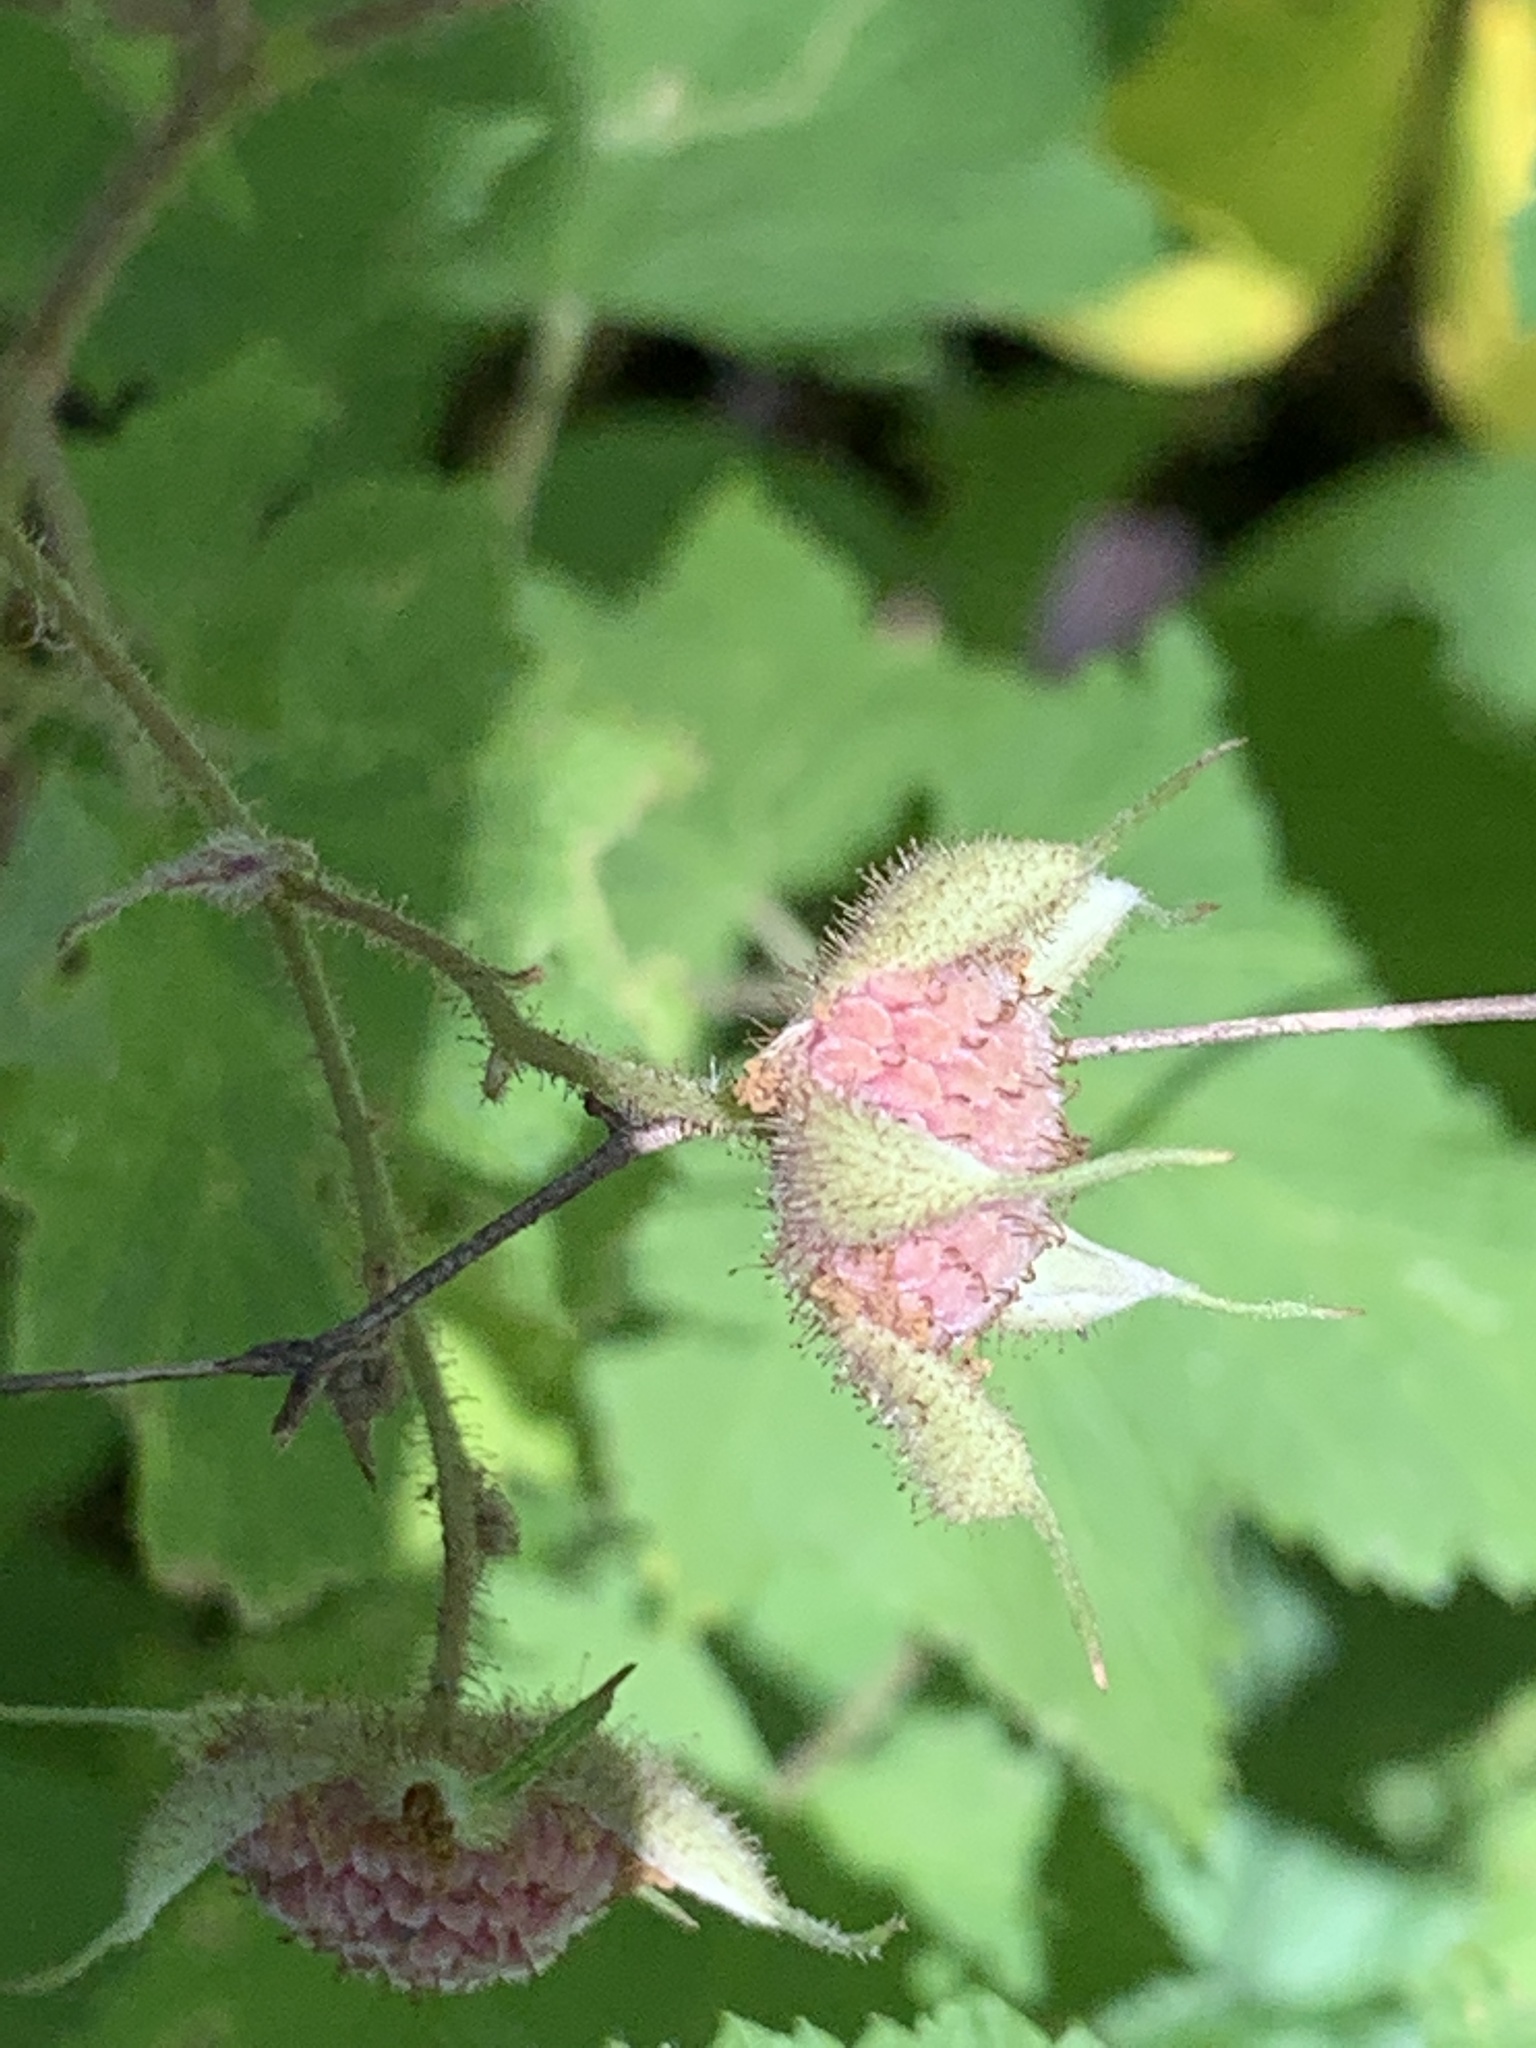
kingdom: Plantae
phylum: Tracheophyta
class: Magnoliopsida
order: Rosales
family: Rosaceae
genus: Rubus
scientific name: Rubus odoratus
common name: Purple-flowered raspberry
